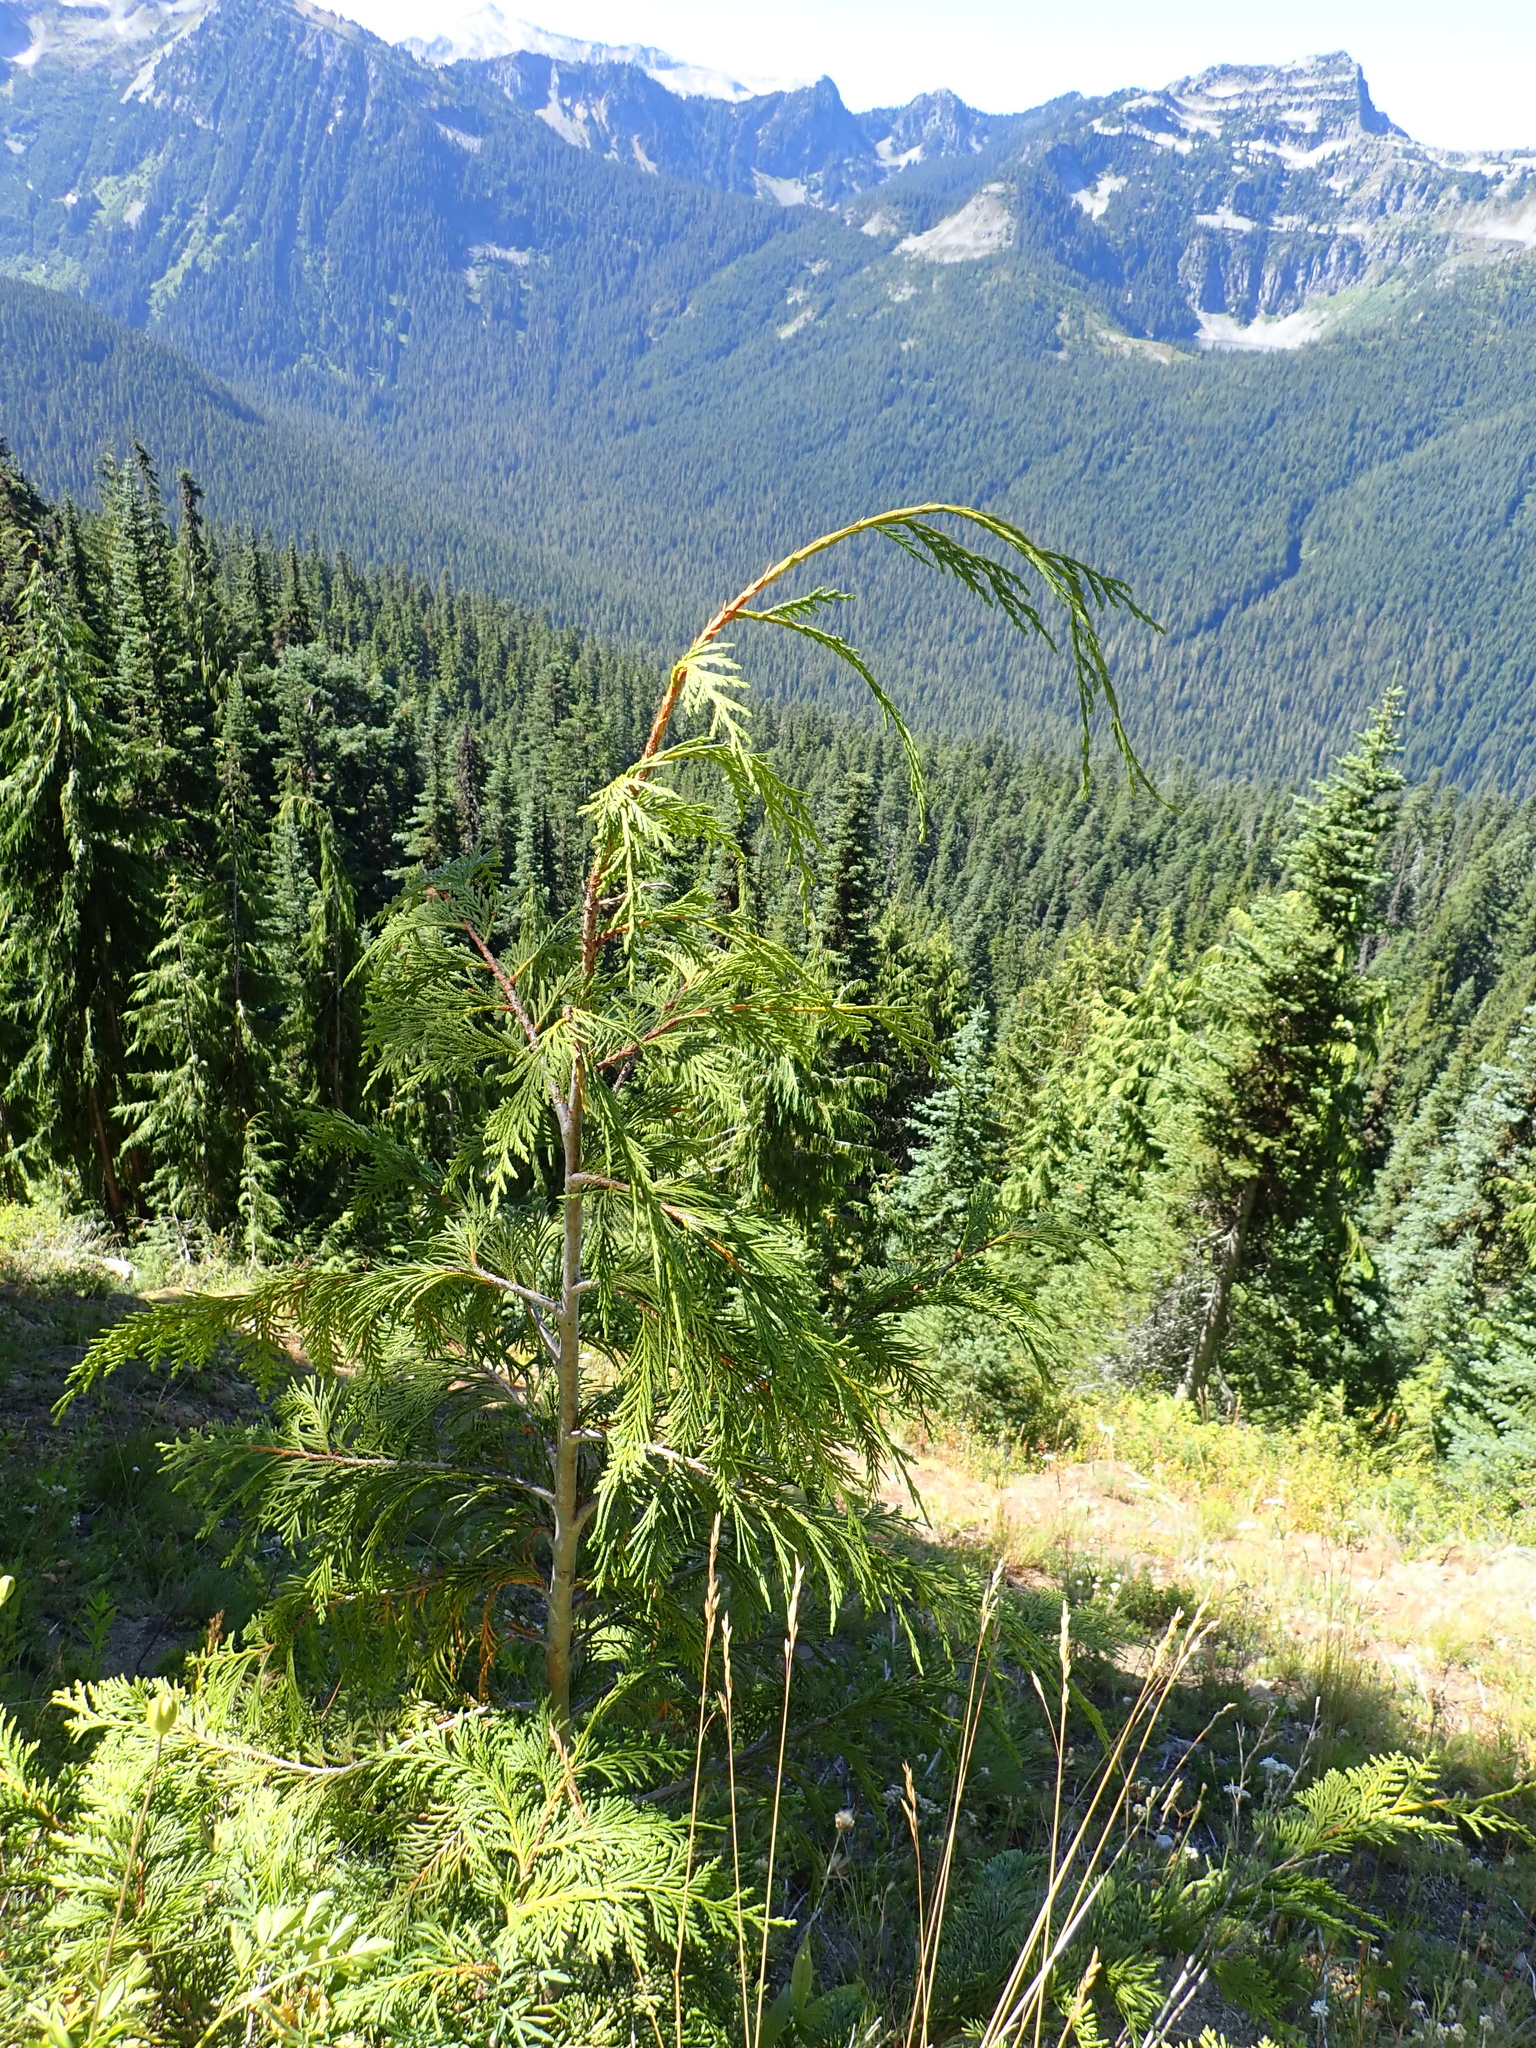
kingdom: Plantae
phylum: Tracheophyta
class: Pinopsida
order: Pinales
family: Cupressaceae
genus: Xanthocyparis
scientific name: Xanthocyparis nootkatensis
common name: Nootka cypress
